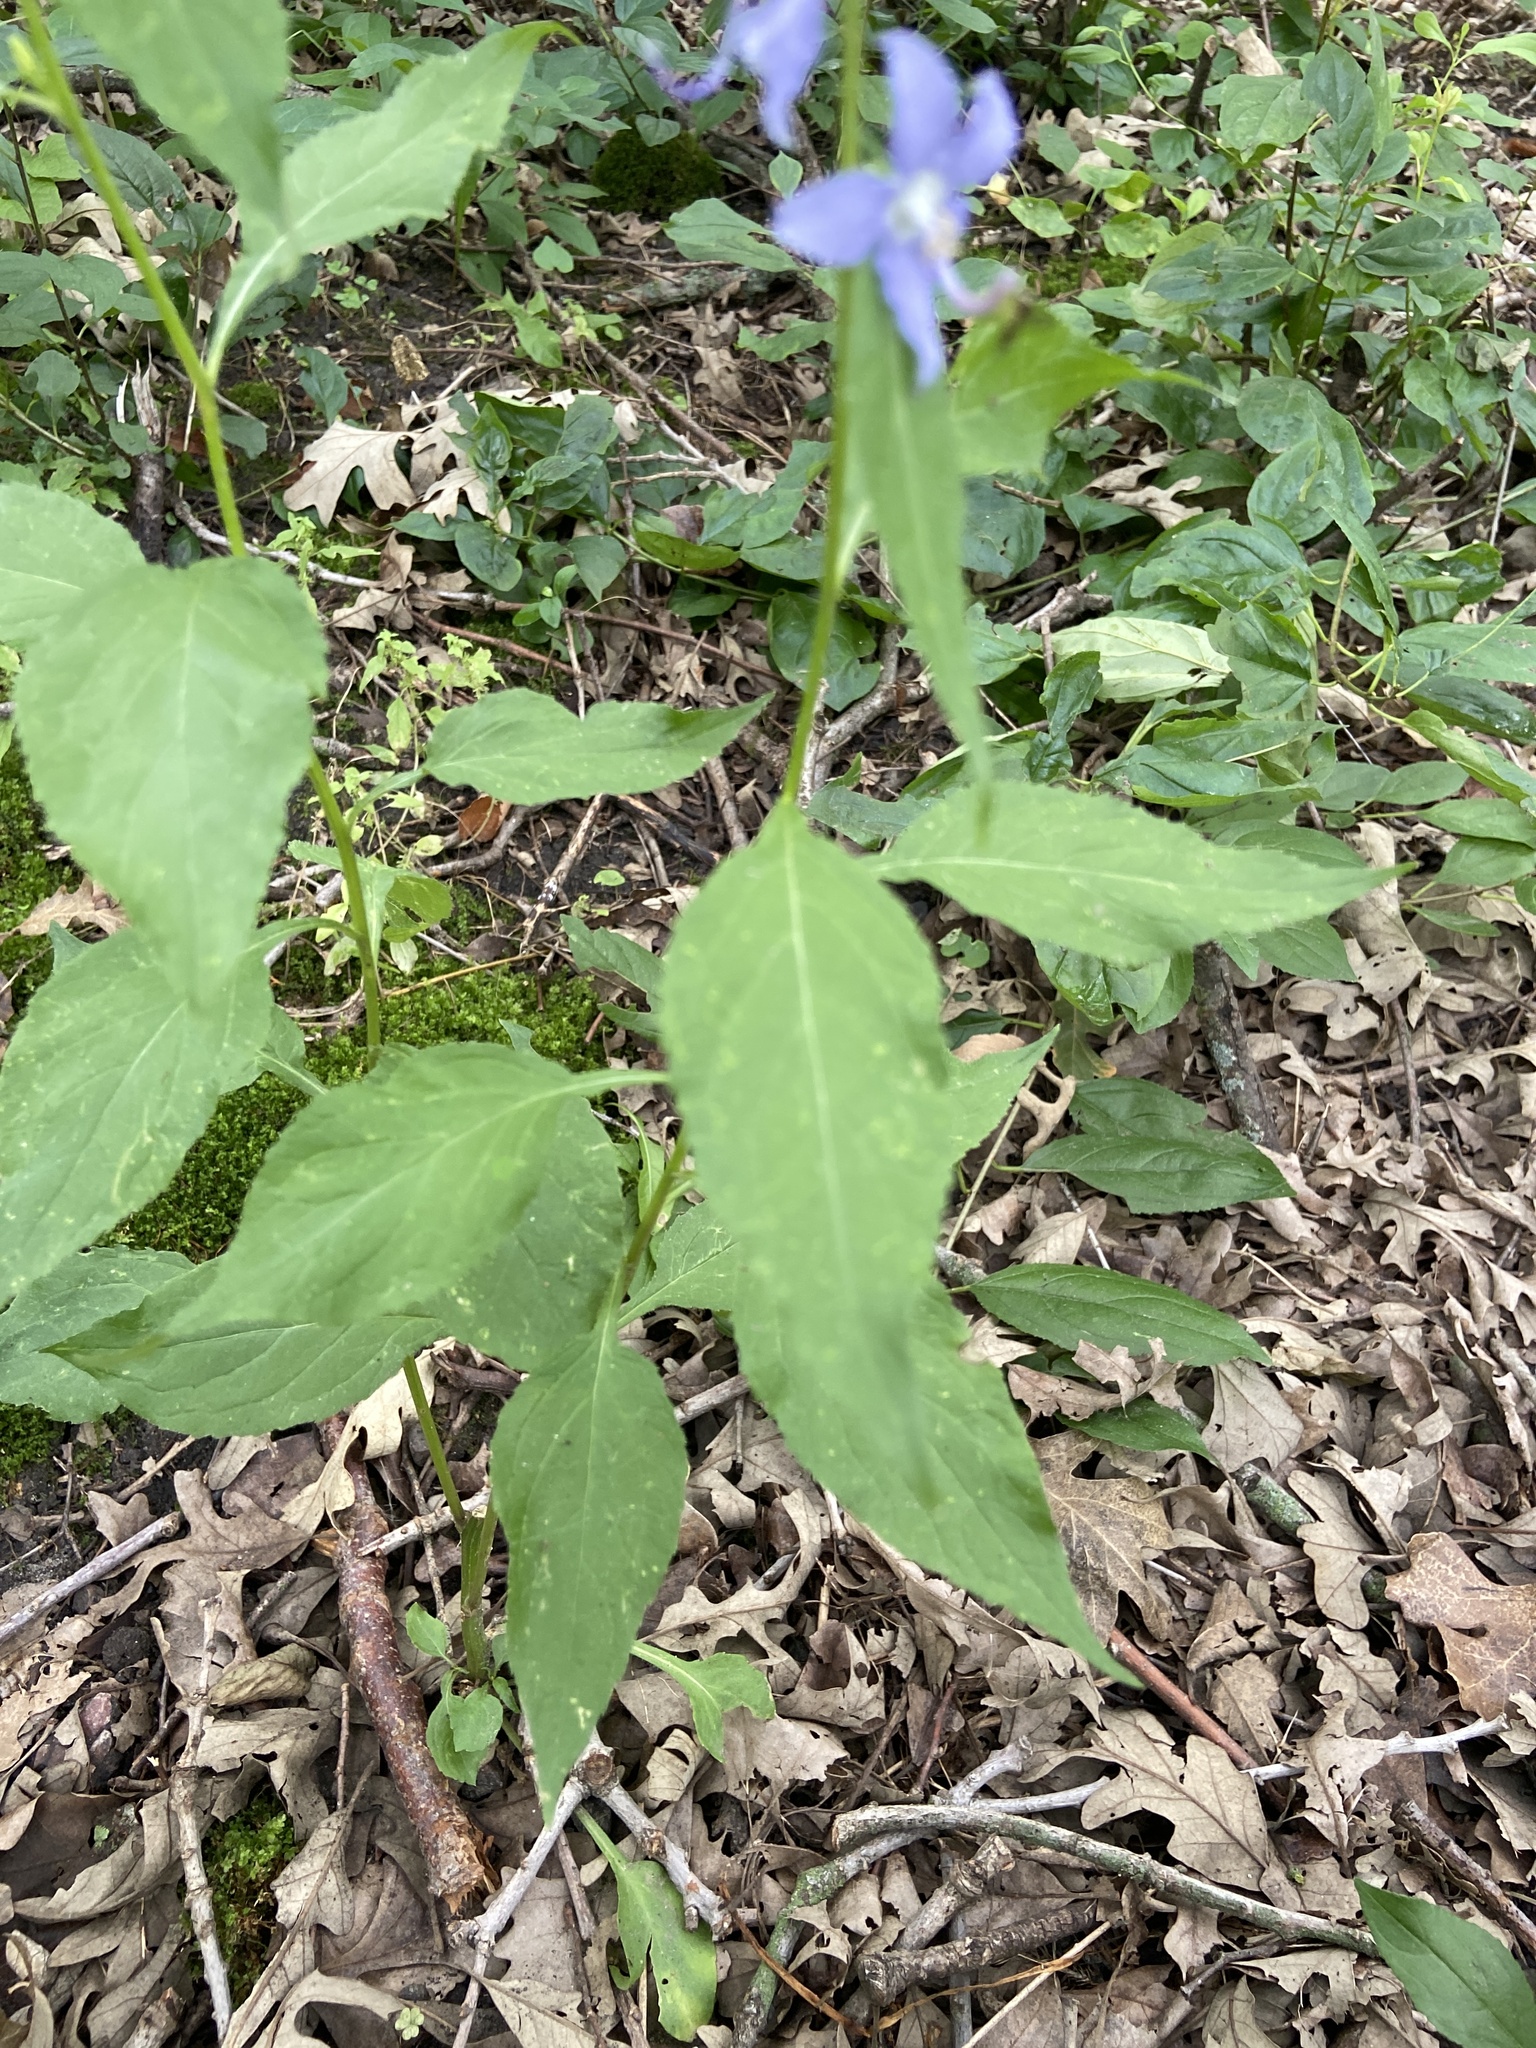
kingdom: Plantae
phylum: Tracheophyta
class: Magnoliopsida
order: Asterales
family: Campanulaceae
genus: Campanulastrum
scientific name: Campanulastrum americanum
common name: American bellflower
